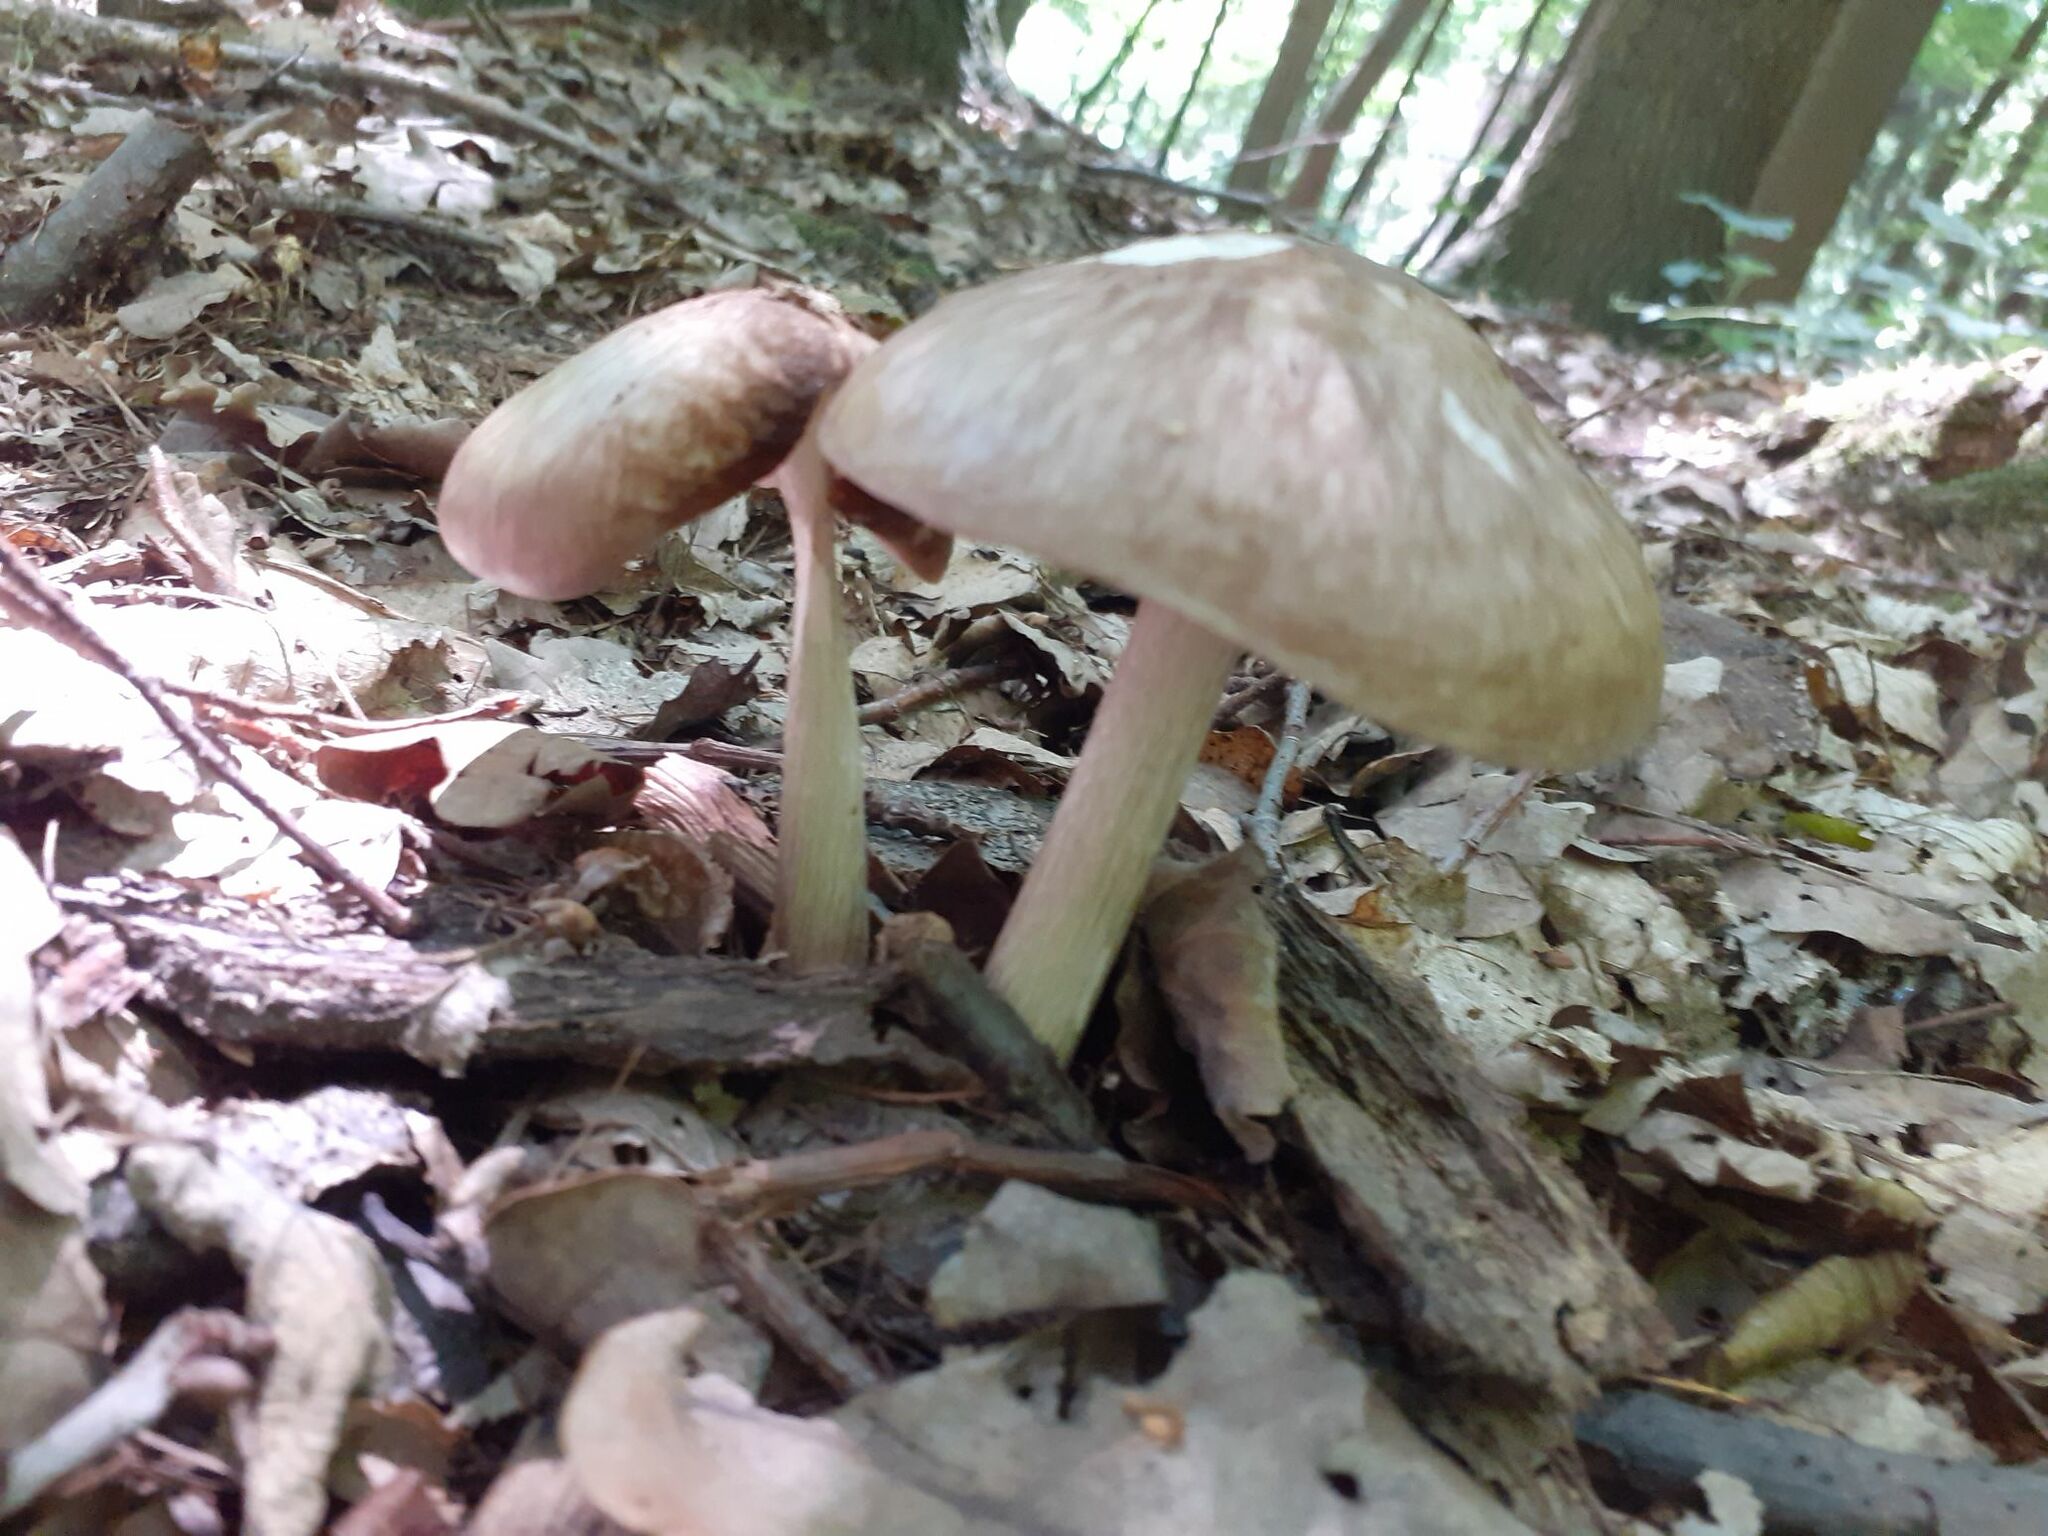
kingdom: Fungi
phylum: Basidiomycota
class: Agaricomycetes
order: Agaricales
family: Pluteaceae
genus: Pluteus
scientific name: Pluteus cervinus
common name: Deer shield
